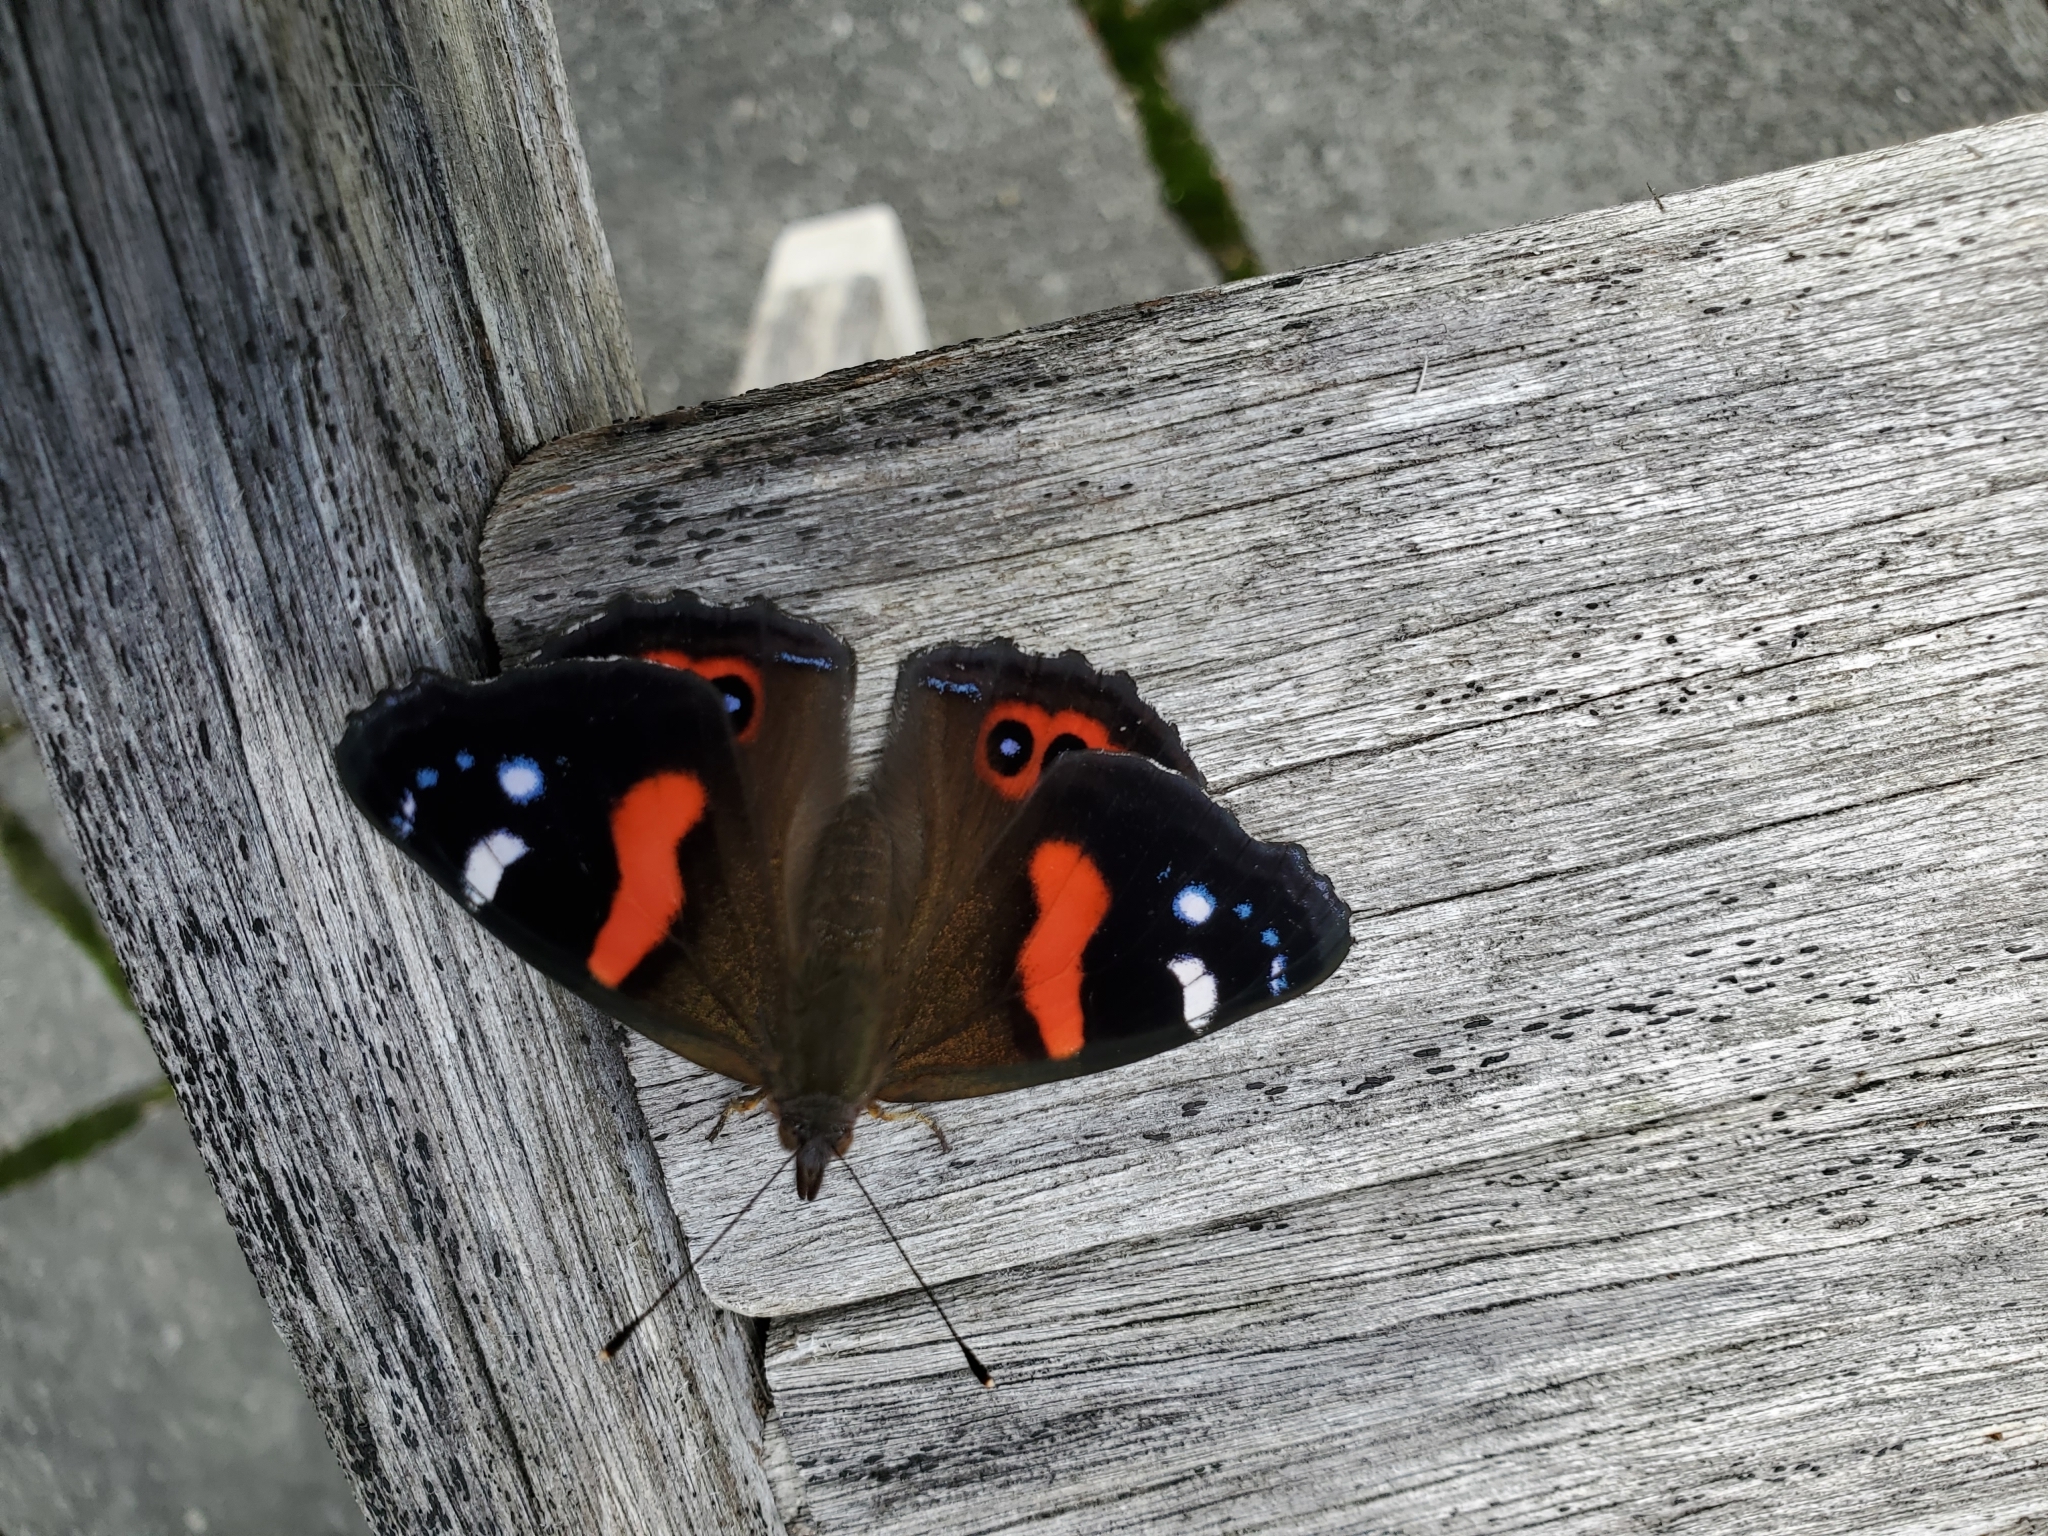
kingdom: Animalia
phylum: Arthropoda
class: Insecta
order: Lepidoptera
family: Nymphalidae
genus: Vanessa
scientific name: Vanessa gonerilla
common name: New zealand red admiral
